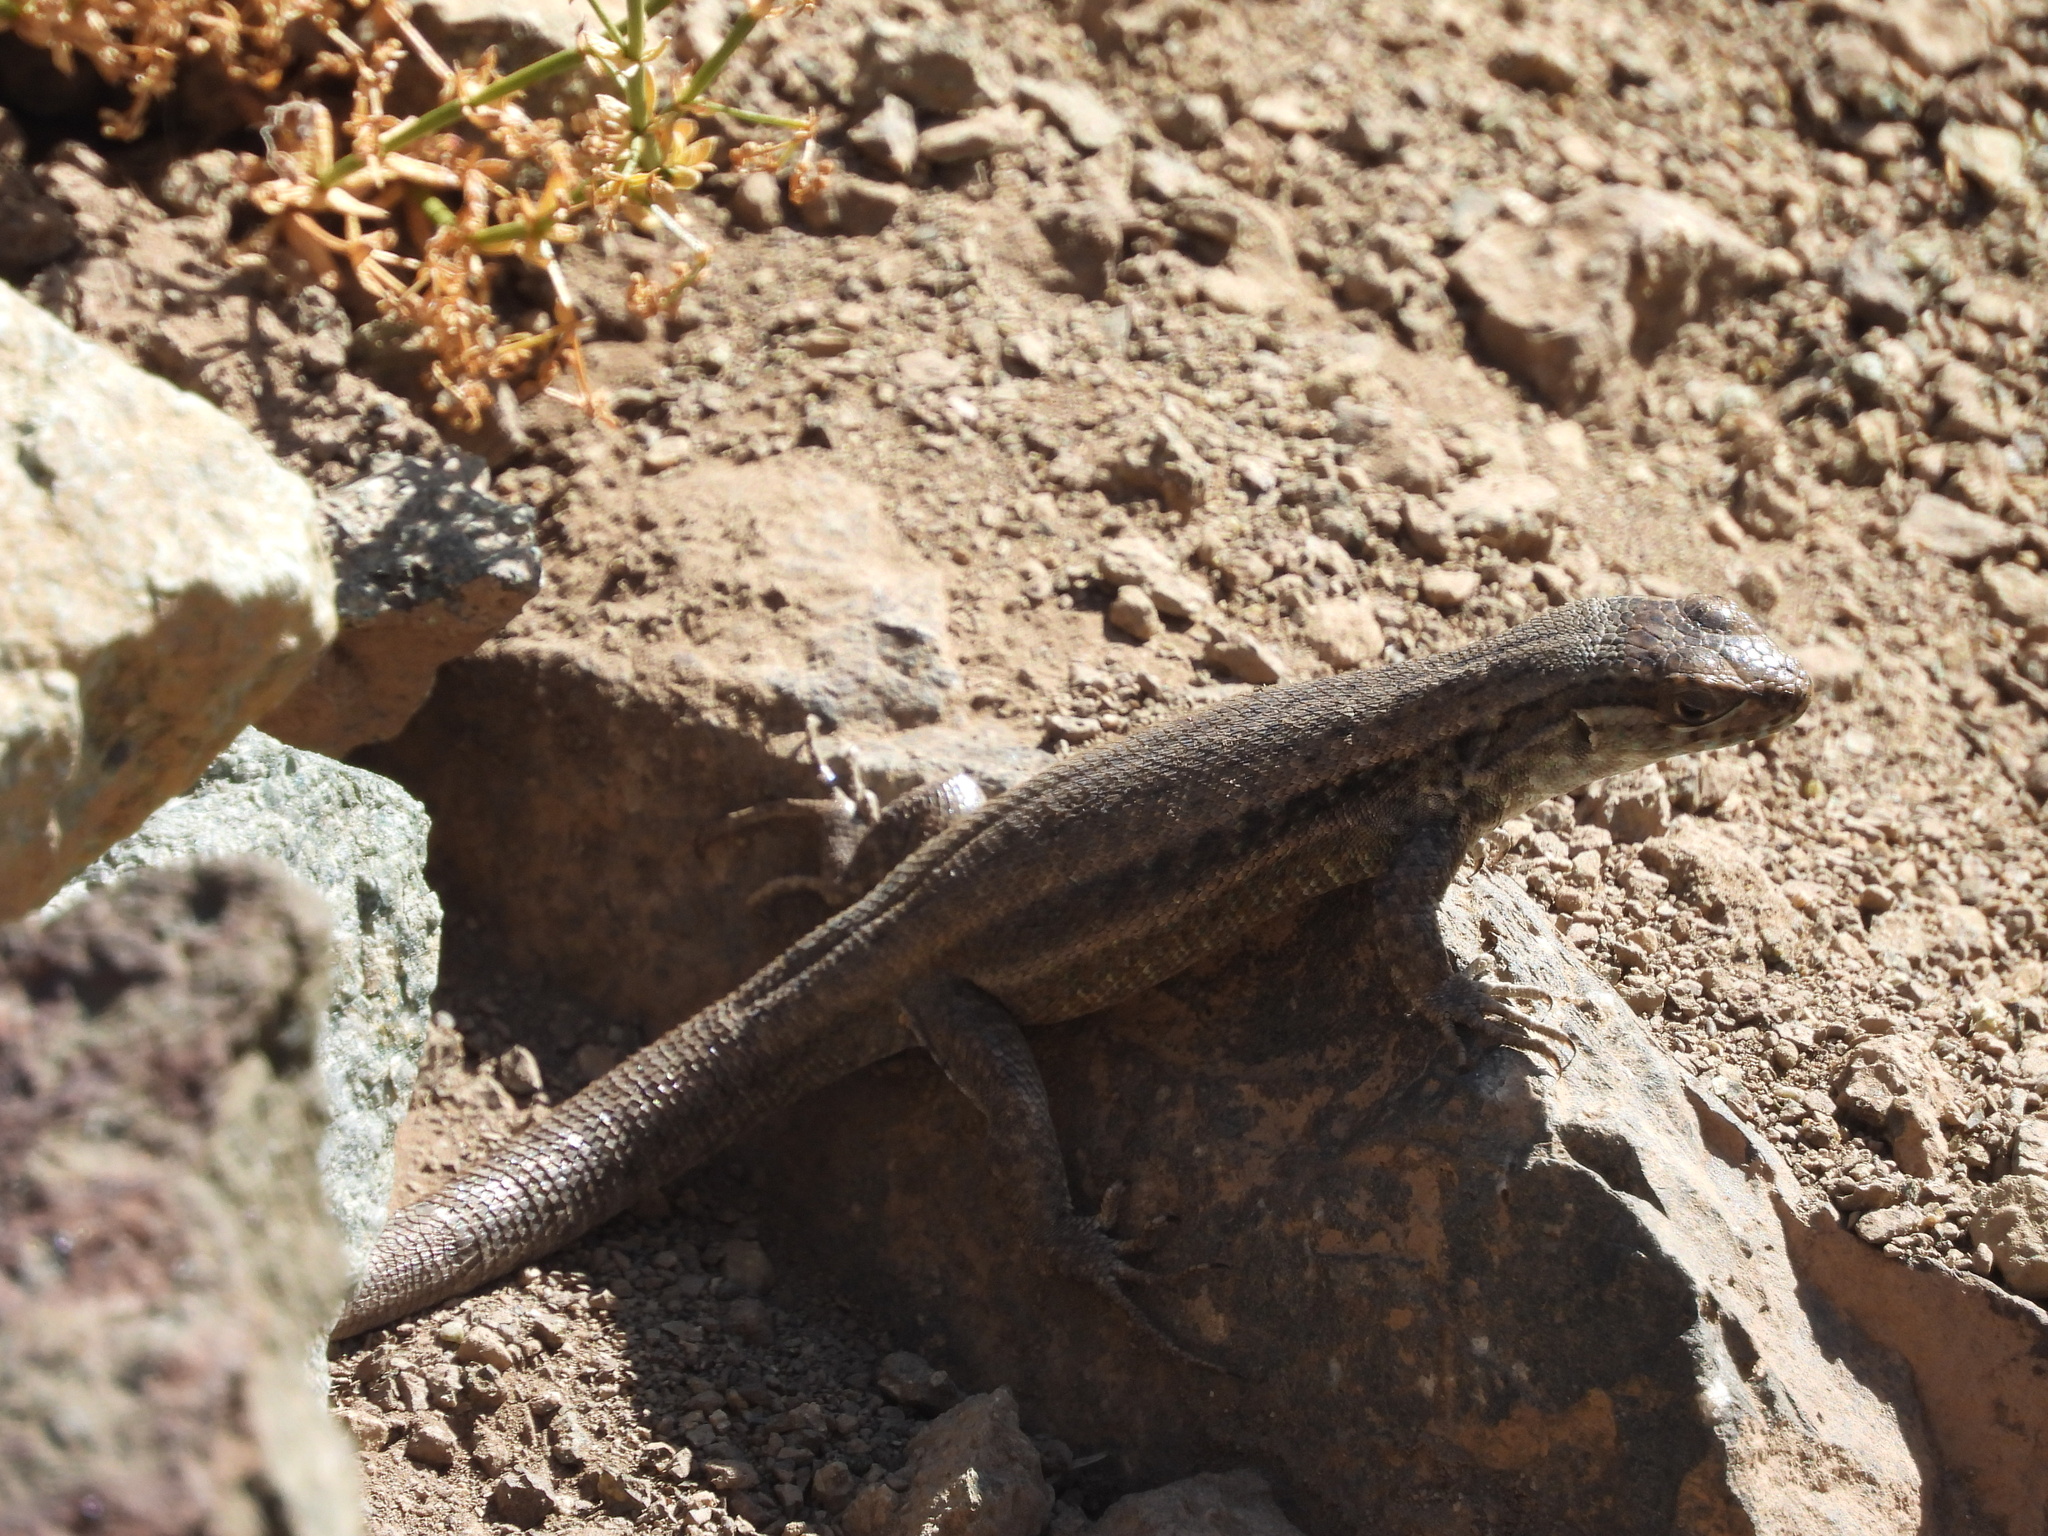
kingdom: Animalia
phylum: Chordata
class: Squamata
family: Liolaemidae
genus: Liolaemus
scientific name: Liolaemus nigroviridis
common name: Black-green tree iguana
